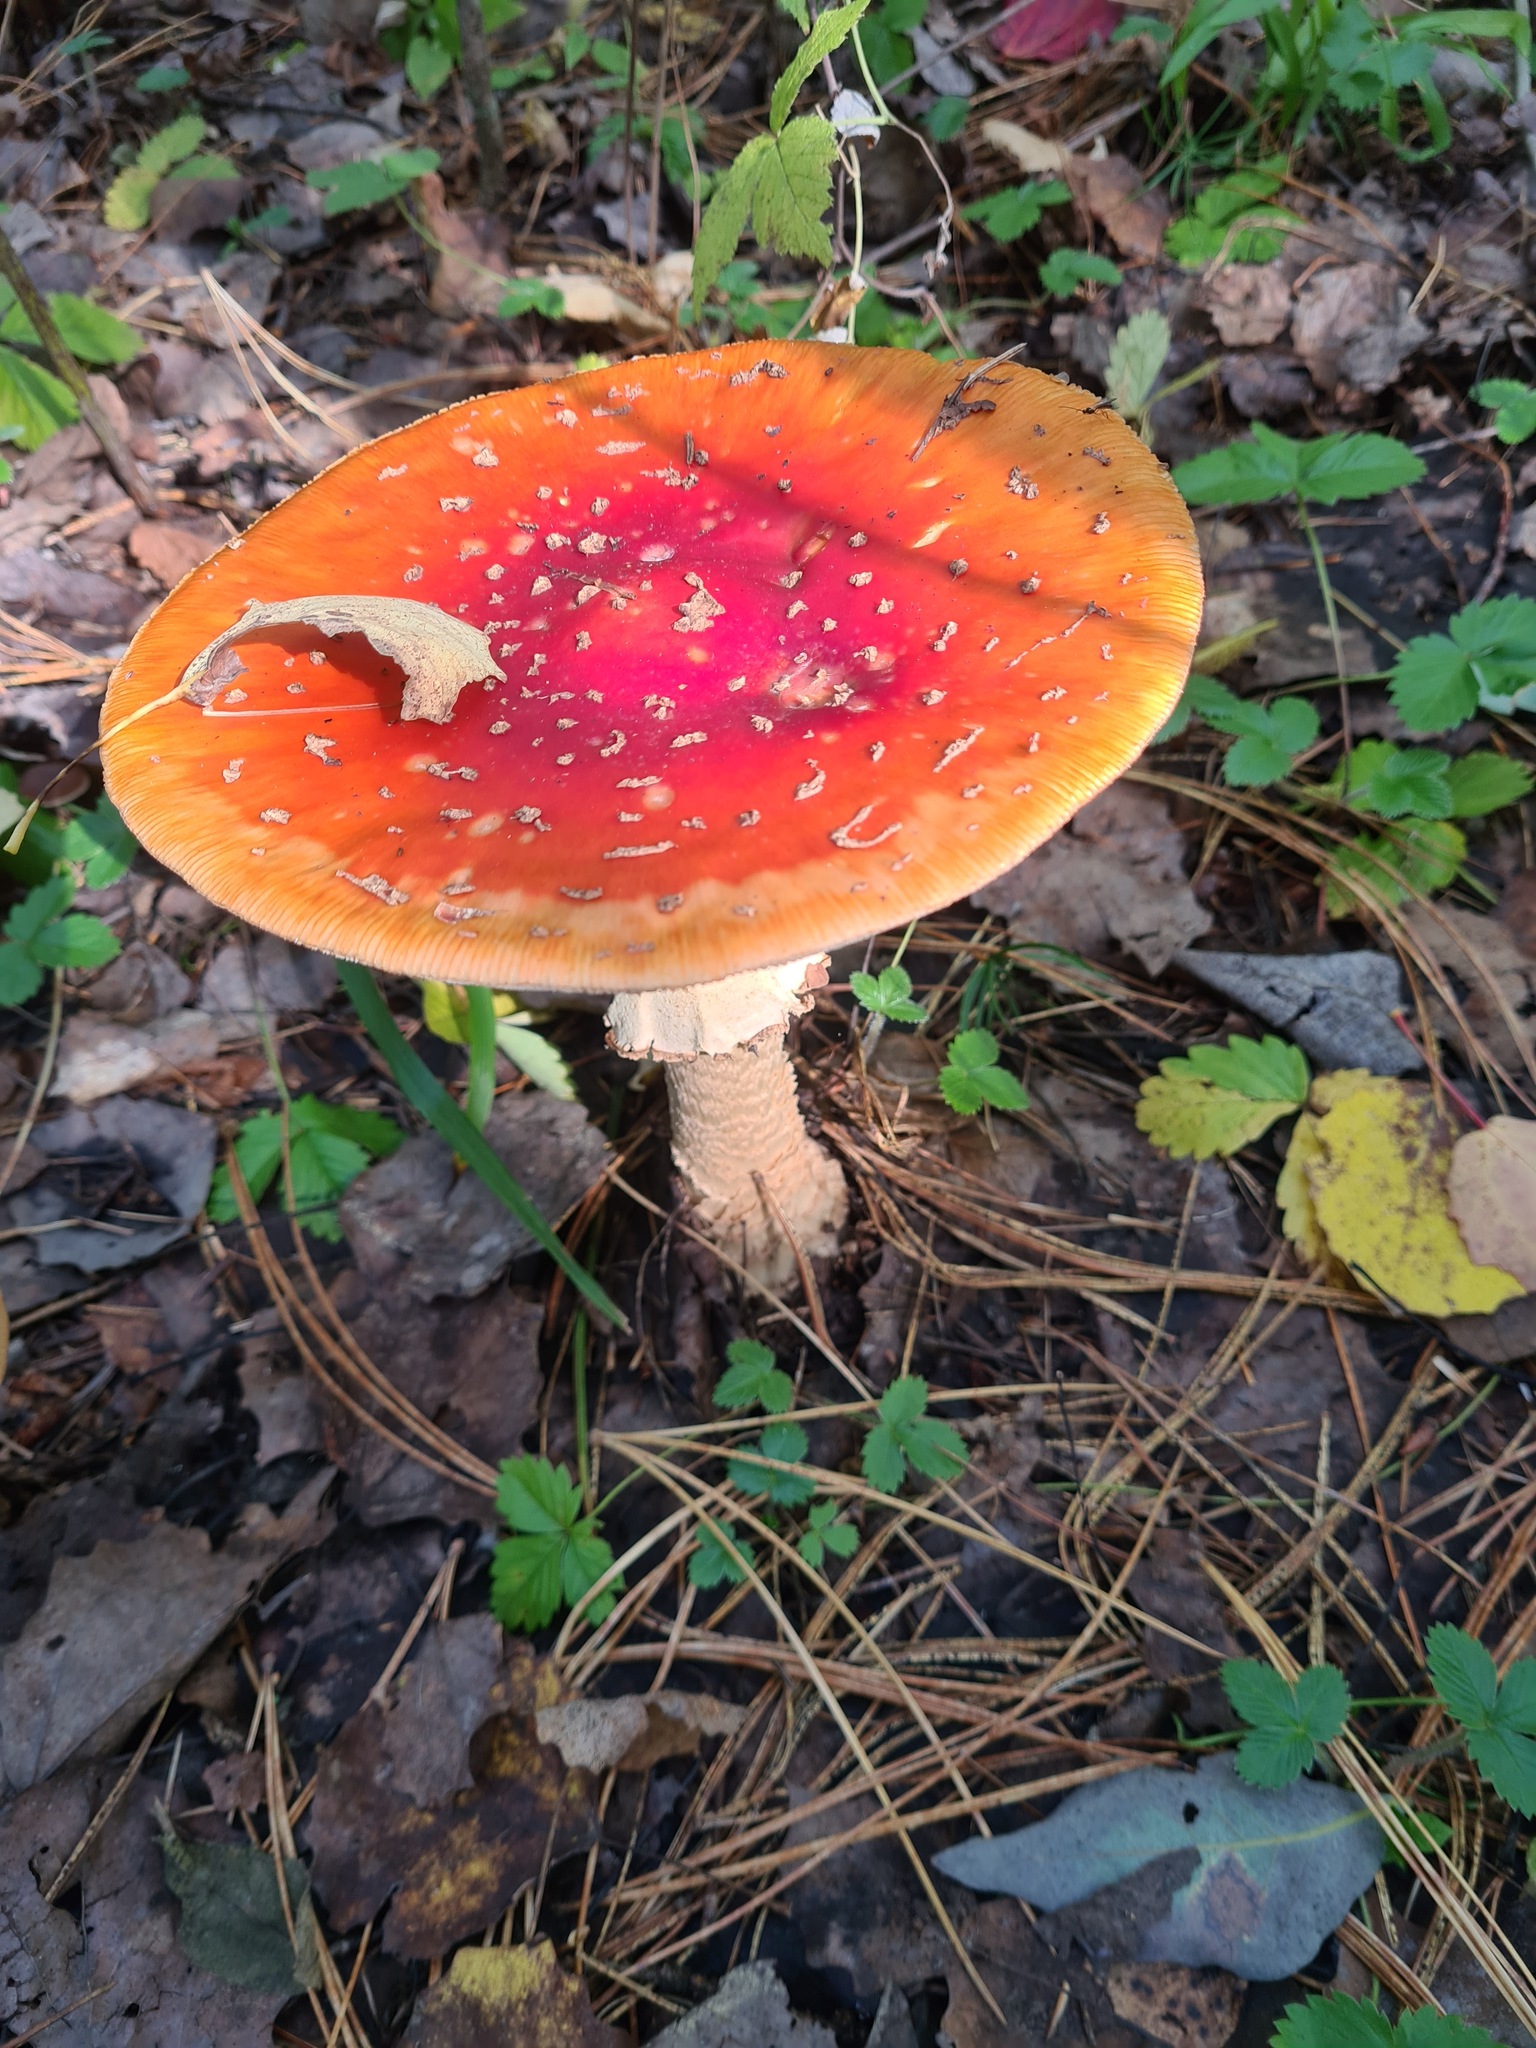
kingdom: Fungi
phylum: Basidiomycota
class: Agaricomycetes
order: Agaricales
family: Amanitaceae
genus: Amanita
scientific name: Amanita muscaria
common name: Fly agaric
